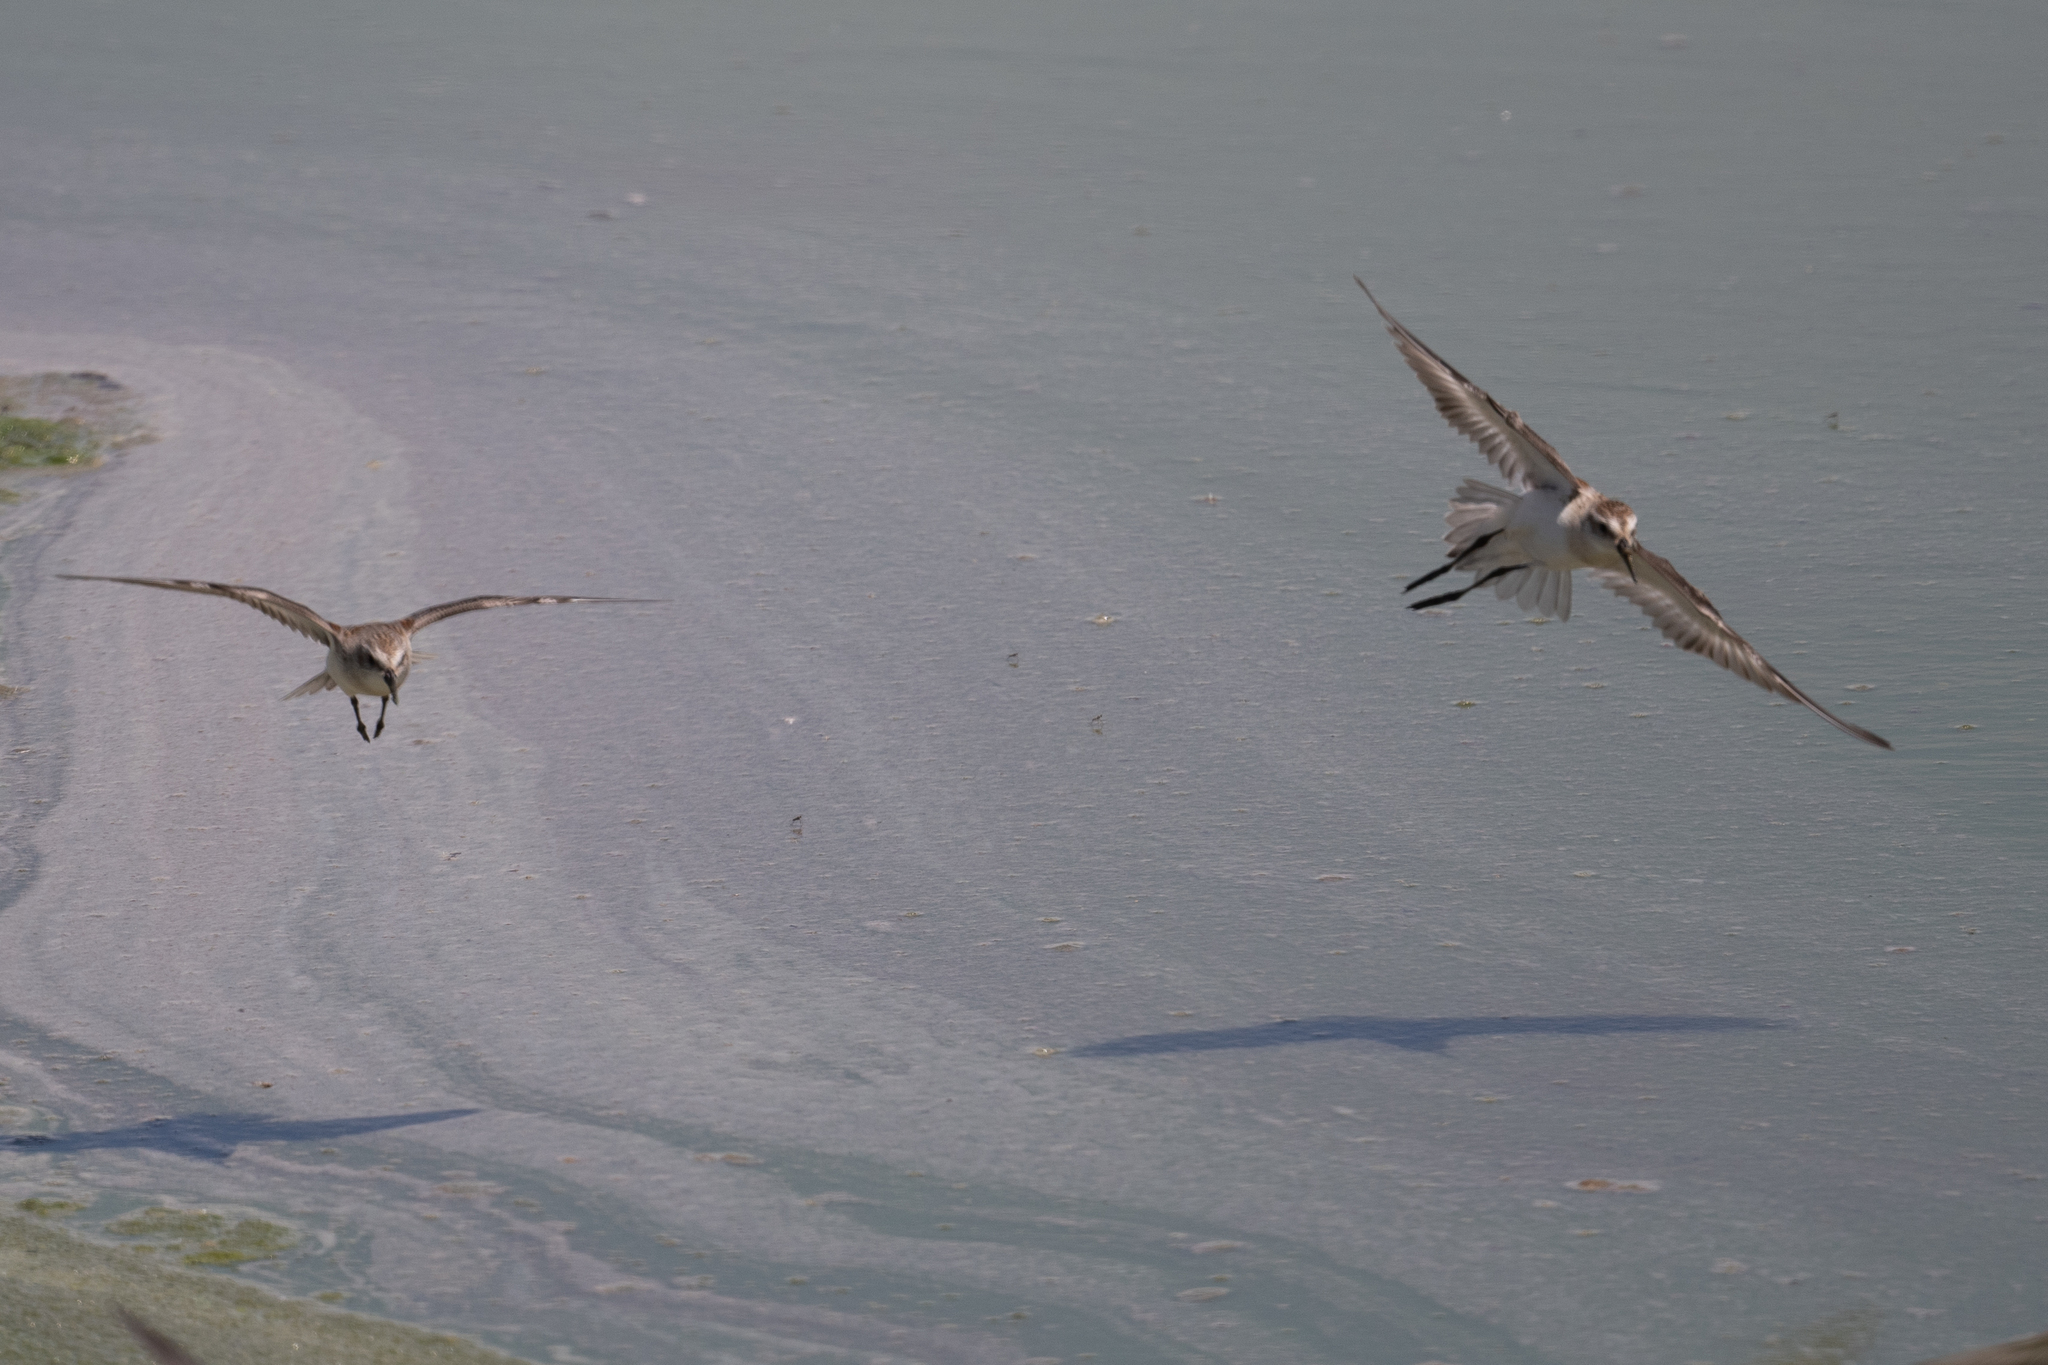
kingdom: Animalia
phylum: Chordata
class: Aves
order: Charadriiformes
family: Scolopacidae
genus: Calidris
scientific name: Calidris mauri
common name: Western sandpiper
